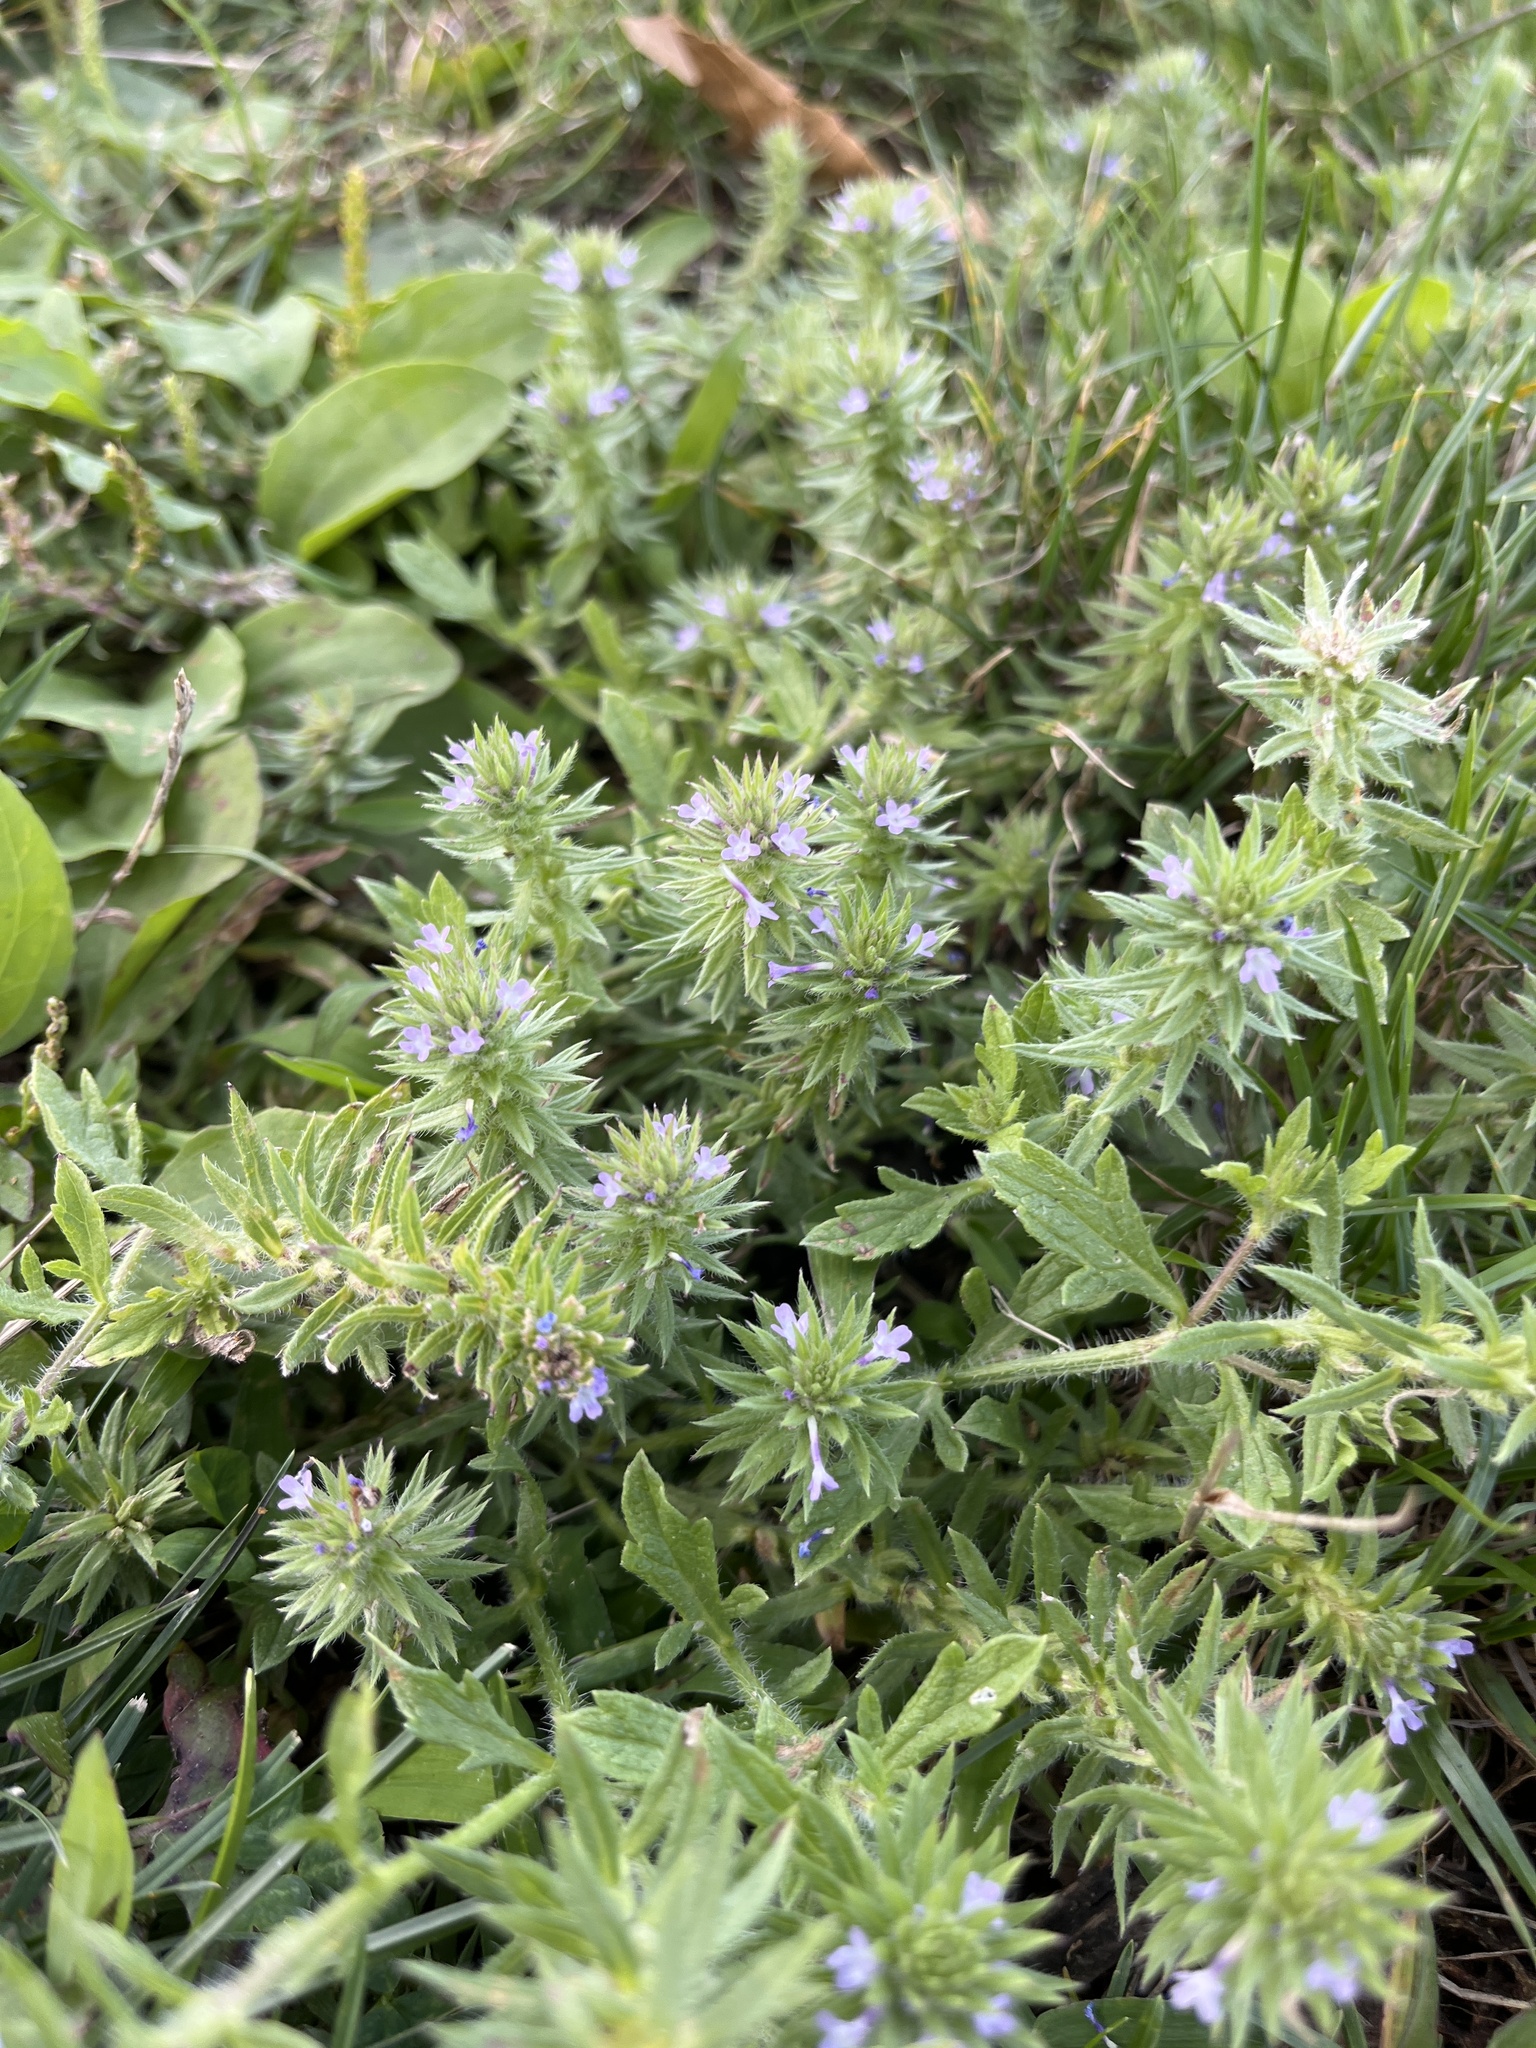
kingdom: Plantae
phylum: Tracheophyta
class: Magnoliopsida
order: Lamiales
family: Verbenaceae
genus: Verbena
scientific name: Verbena bracteata
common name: Bracted vervain
